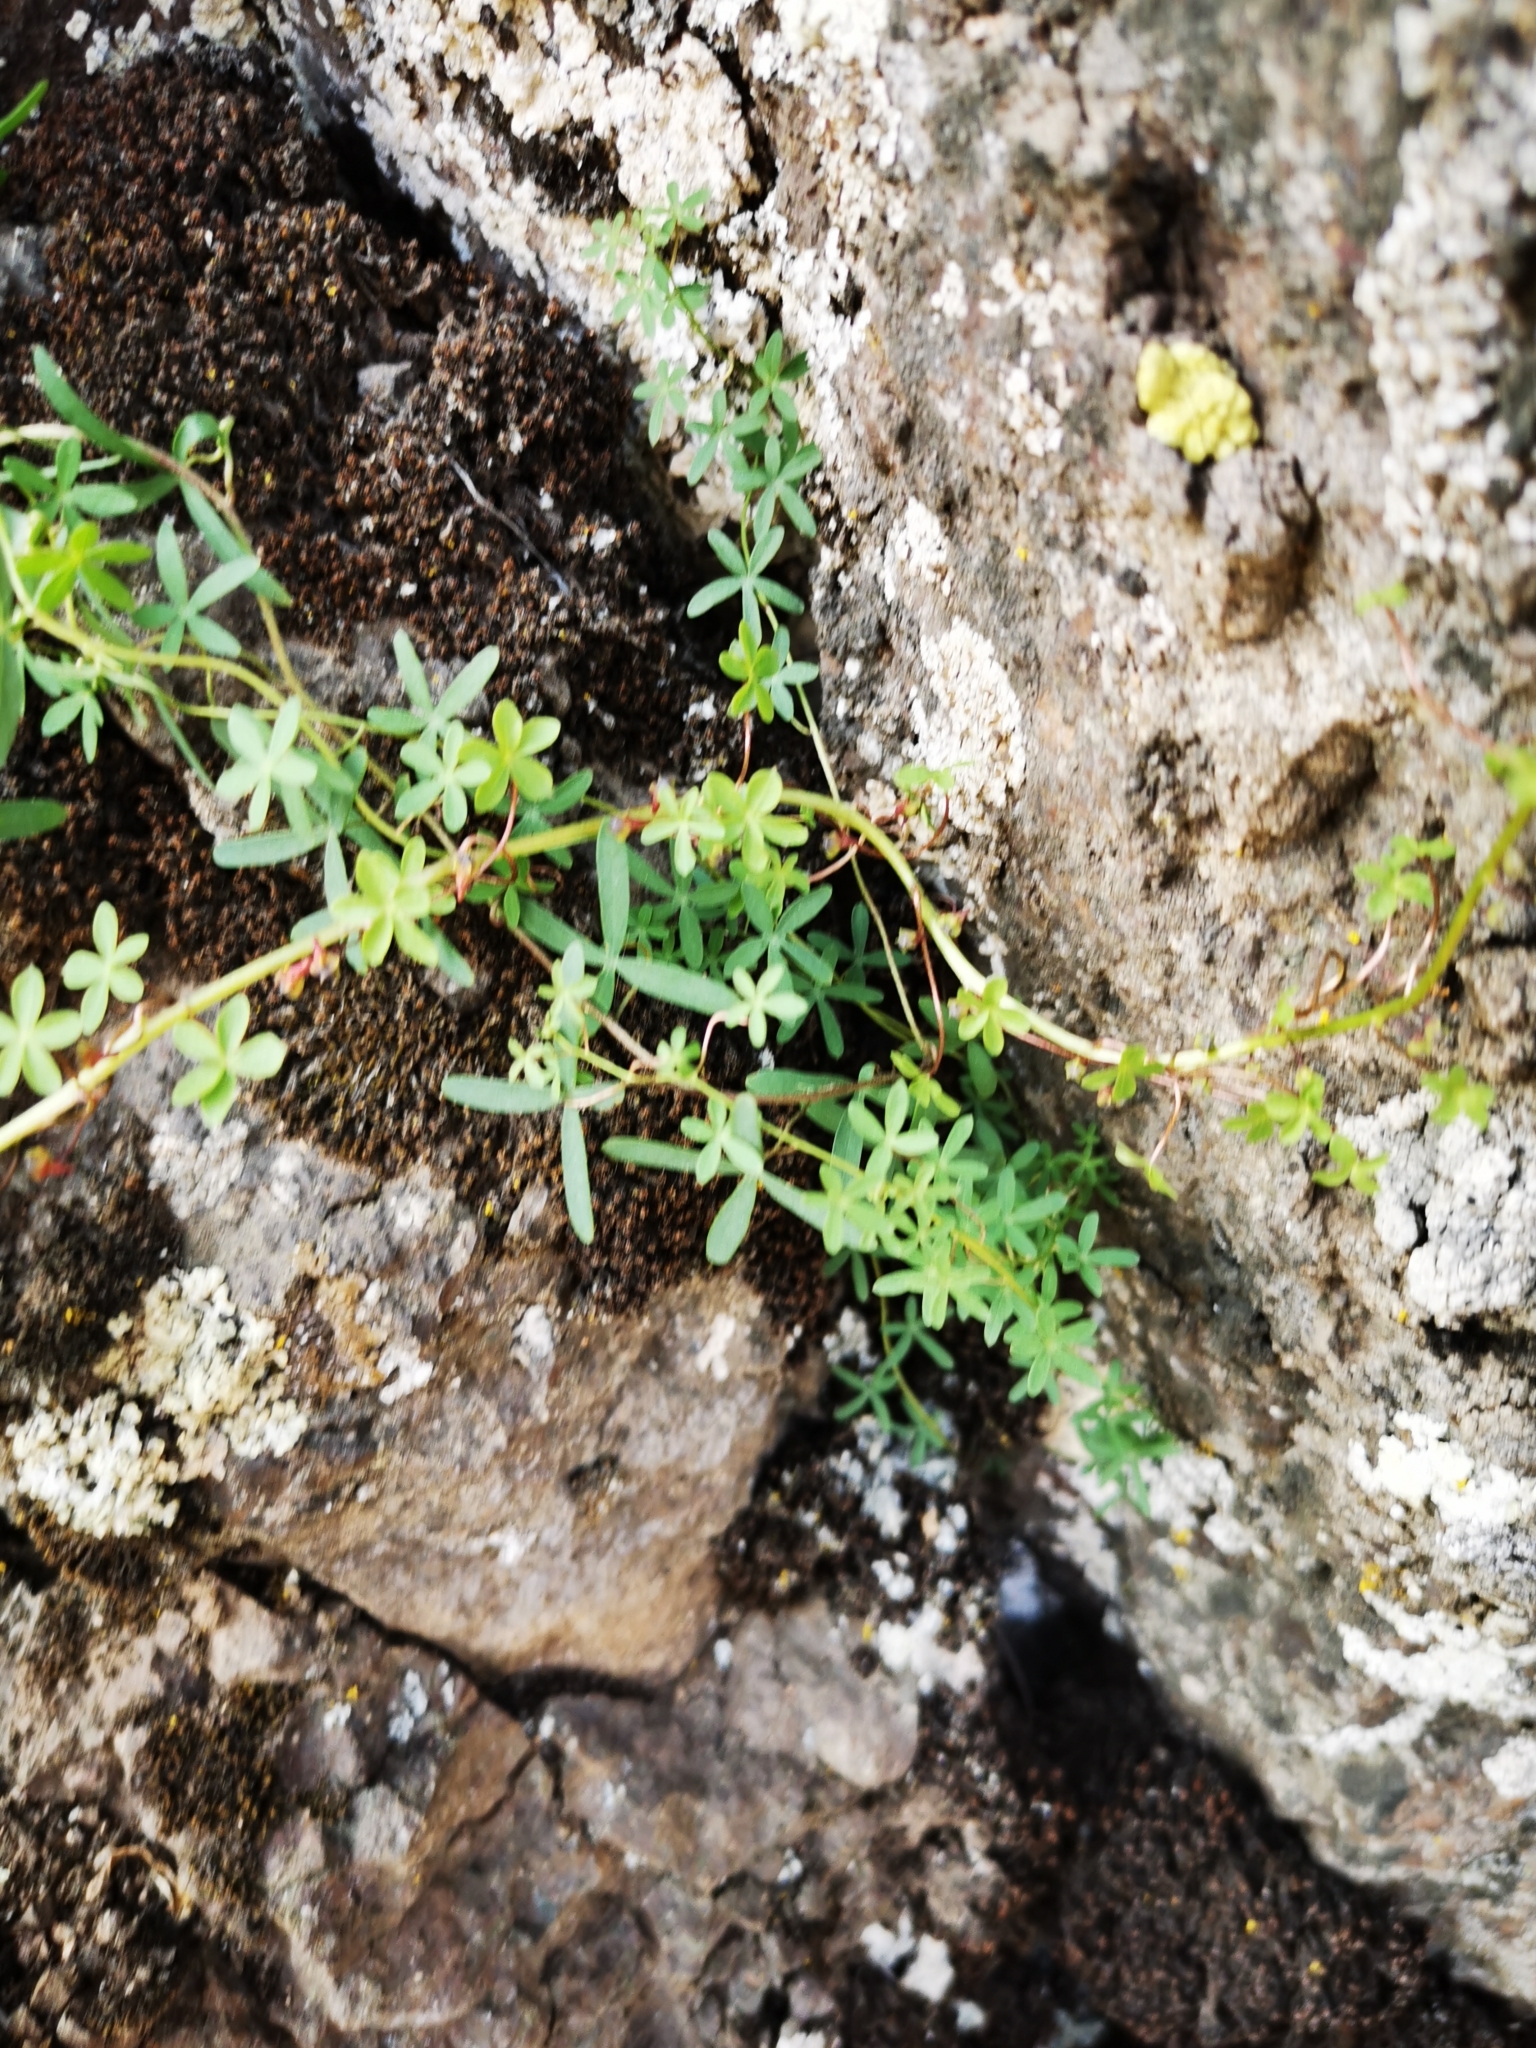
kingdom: Plantae
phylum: Tracheophyta
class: Magnoliopsida
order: Brassicales
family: Tropaeolaceae
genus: Tropaeolum
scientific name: Tropaeolum tricolor
